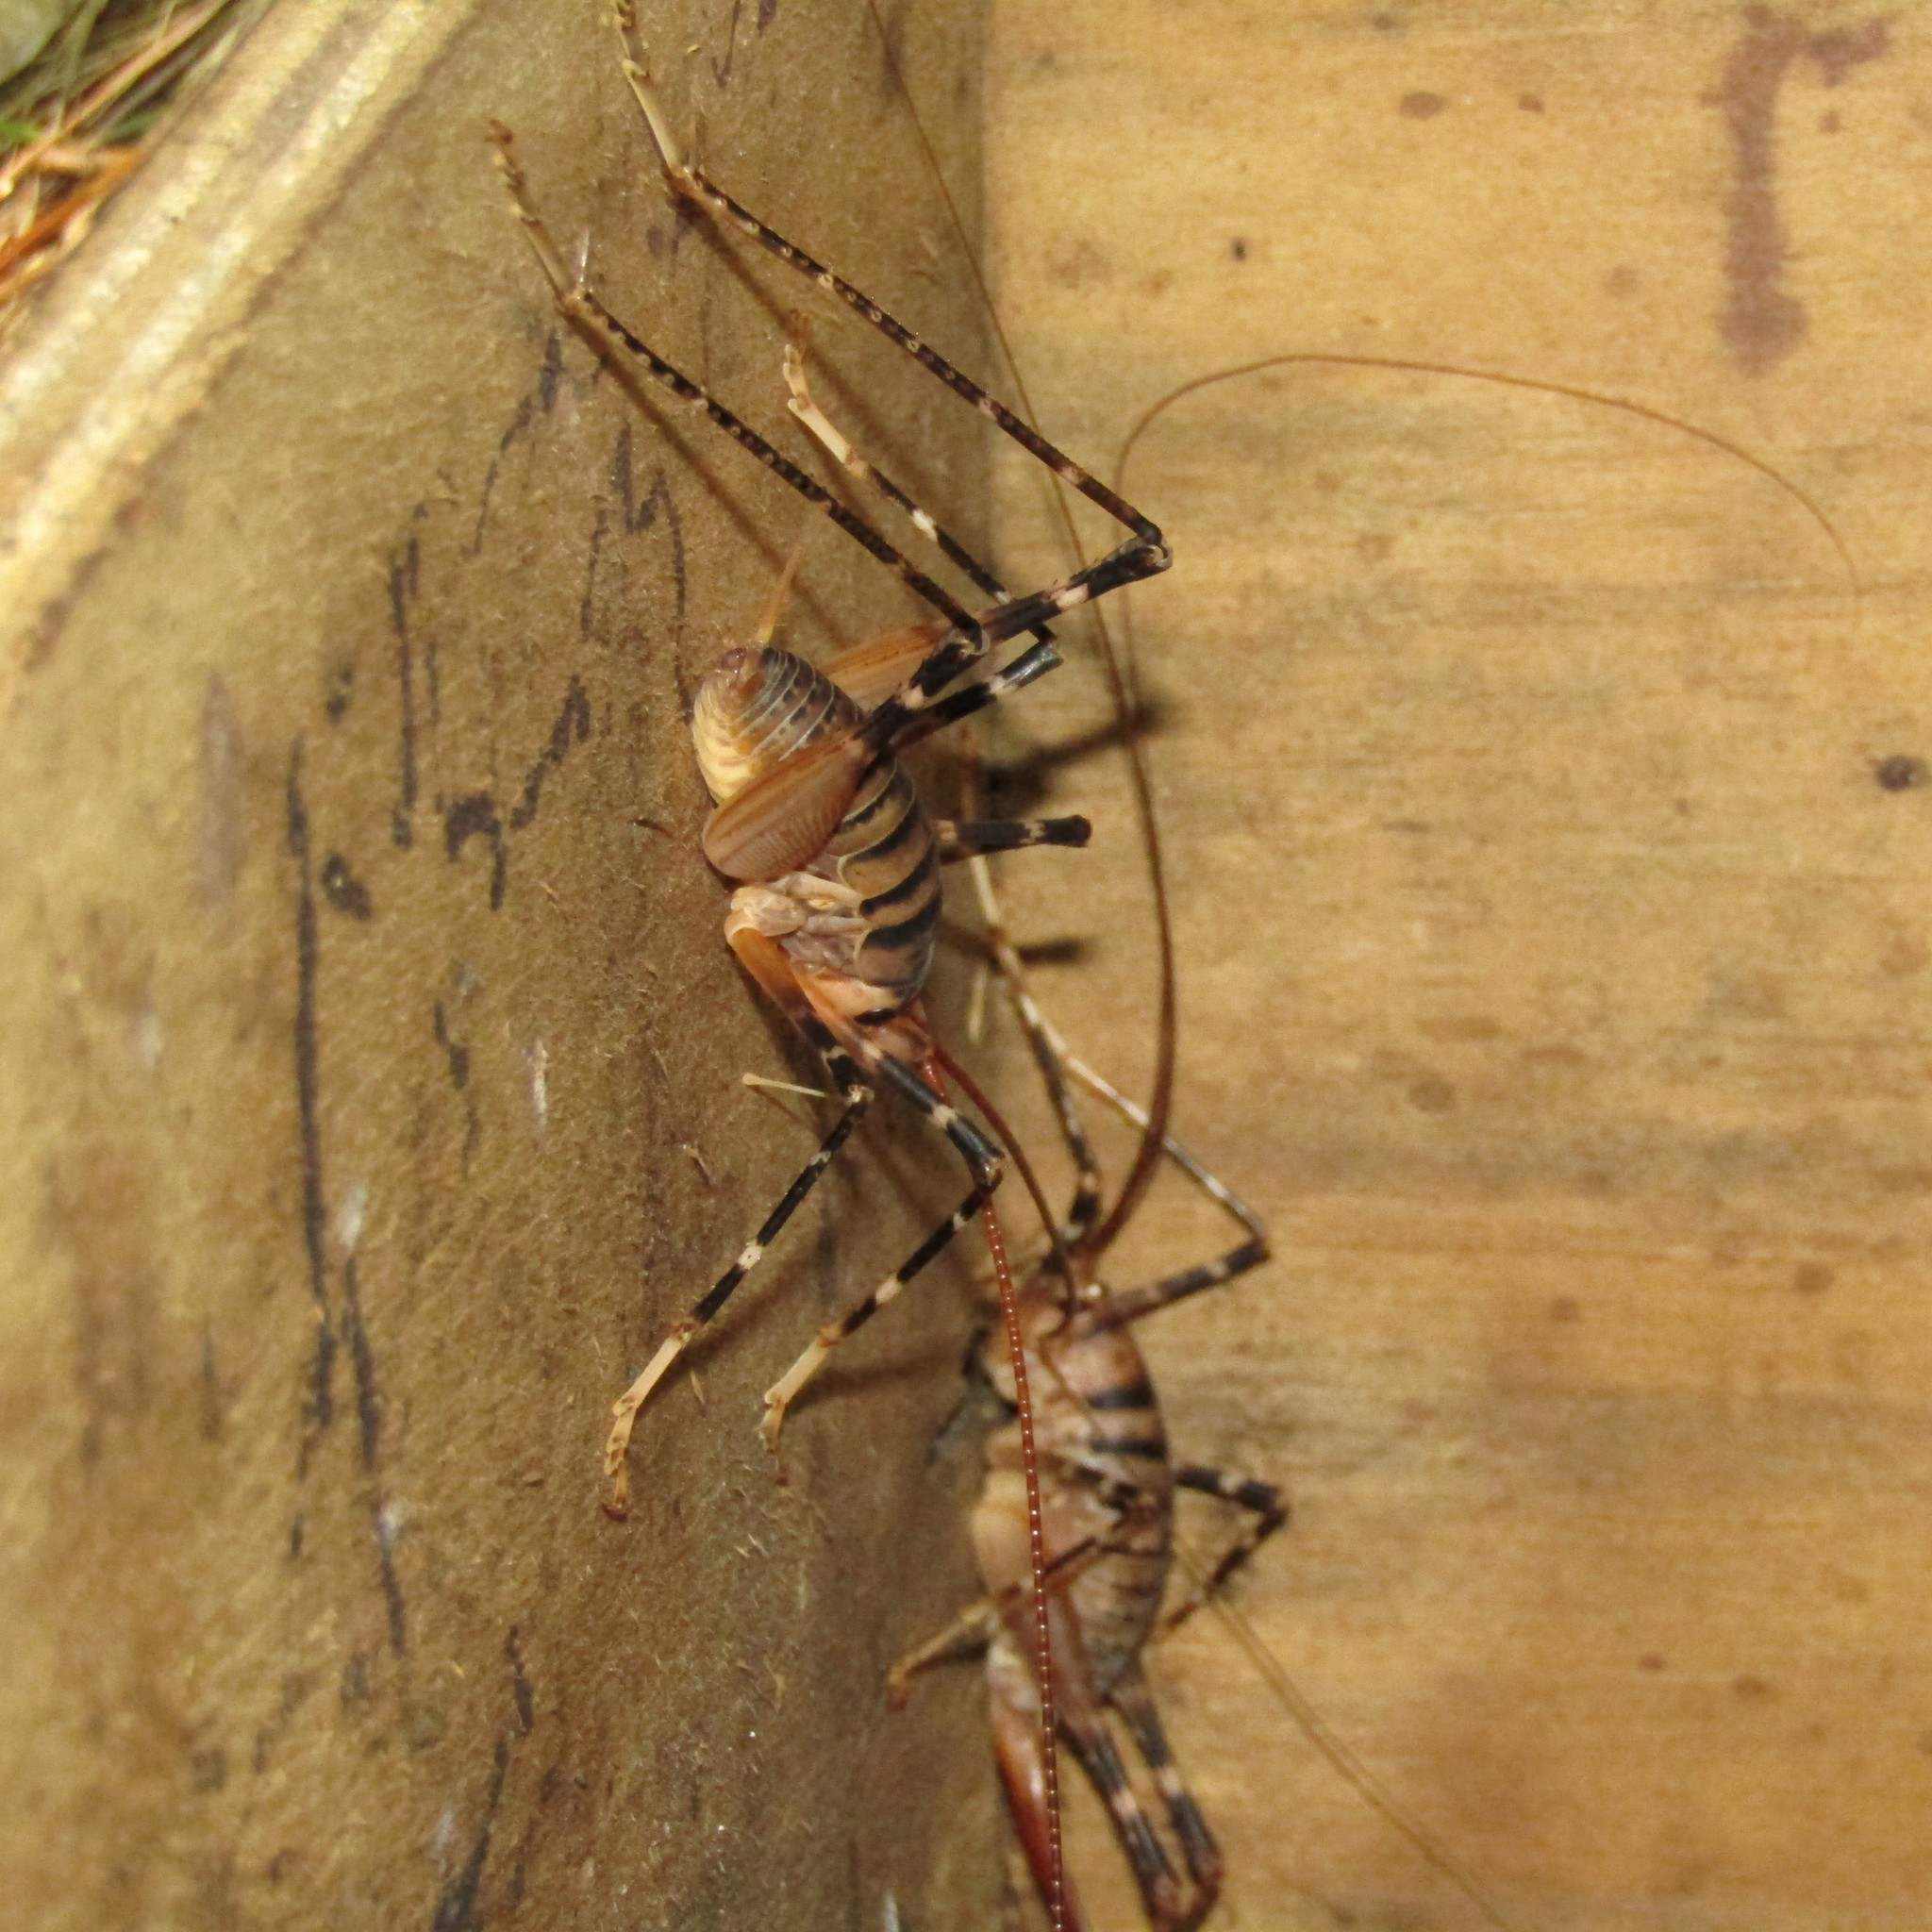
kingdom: Animalia
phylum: Arthropoda
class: Insecta
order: Orthoptera
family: Rhaphidophoridae
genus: Pachyrhamma
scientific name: Pachyrhamma edwardsii
